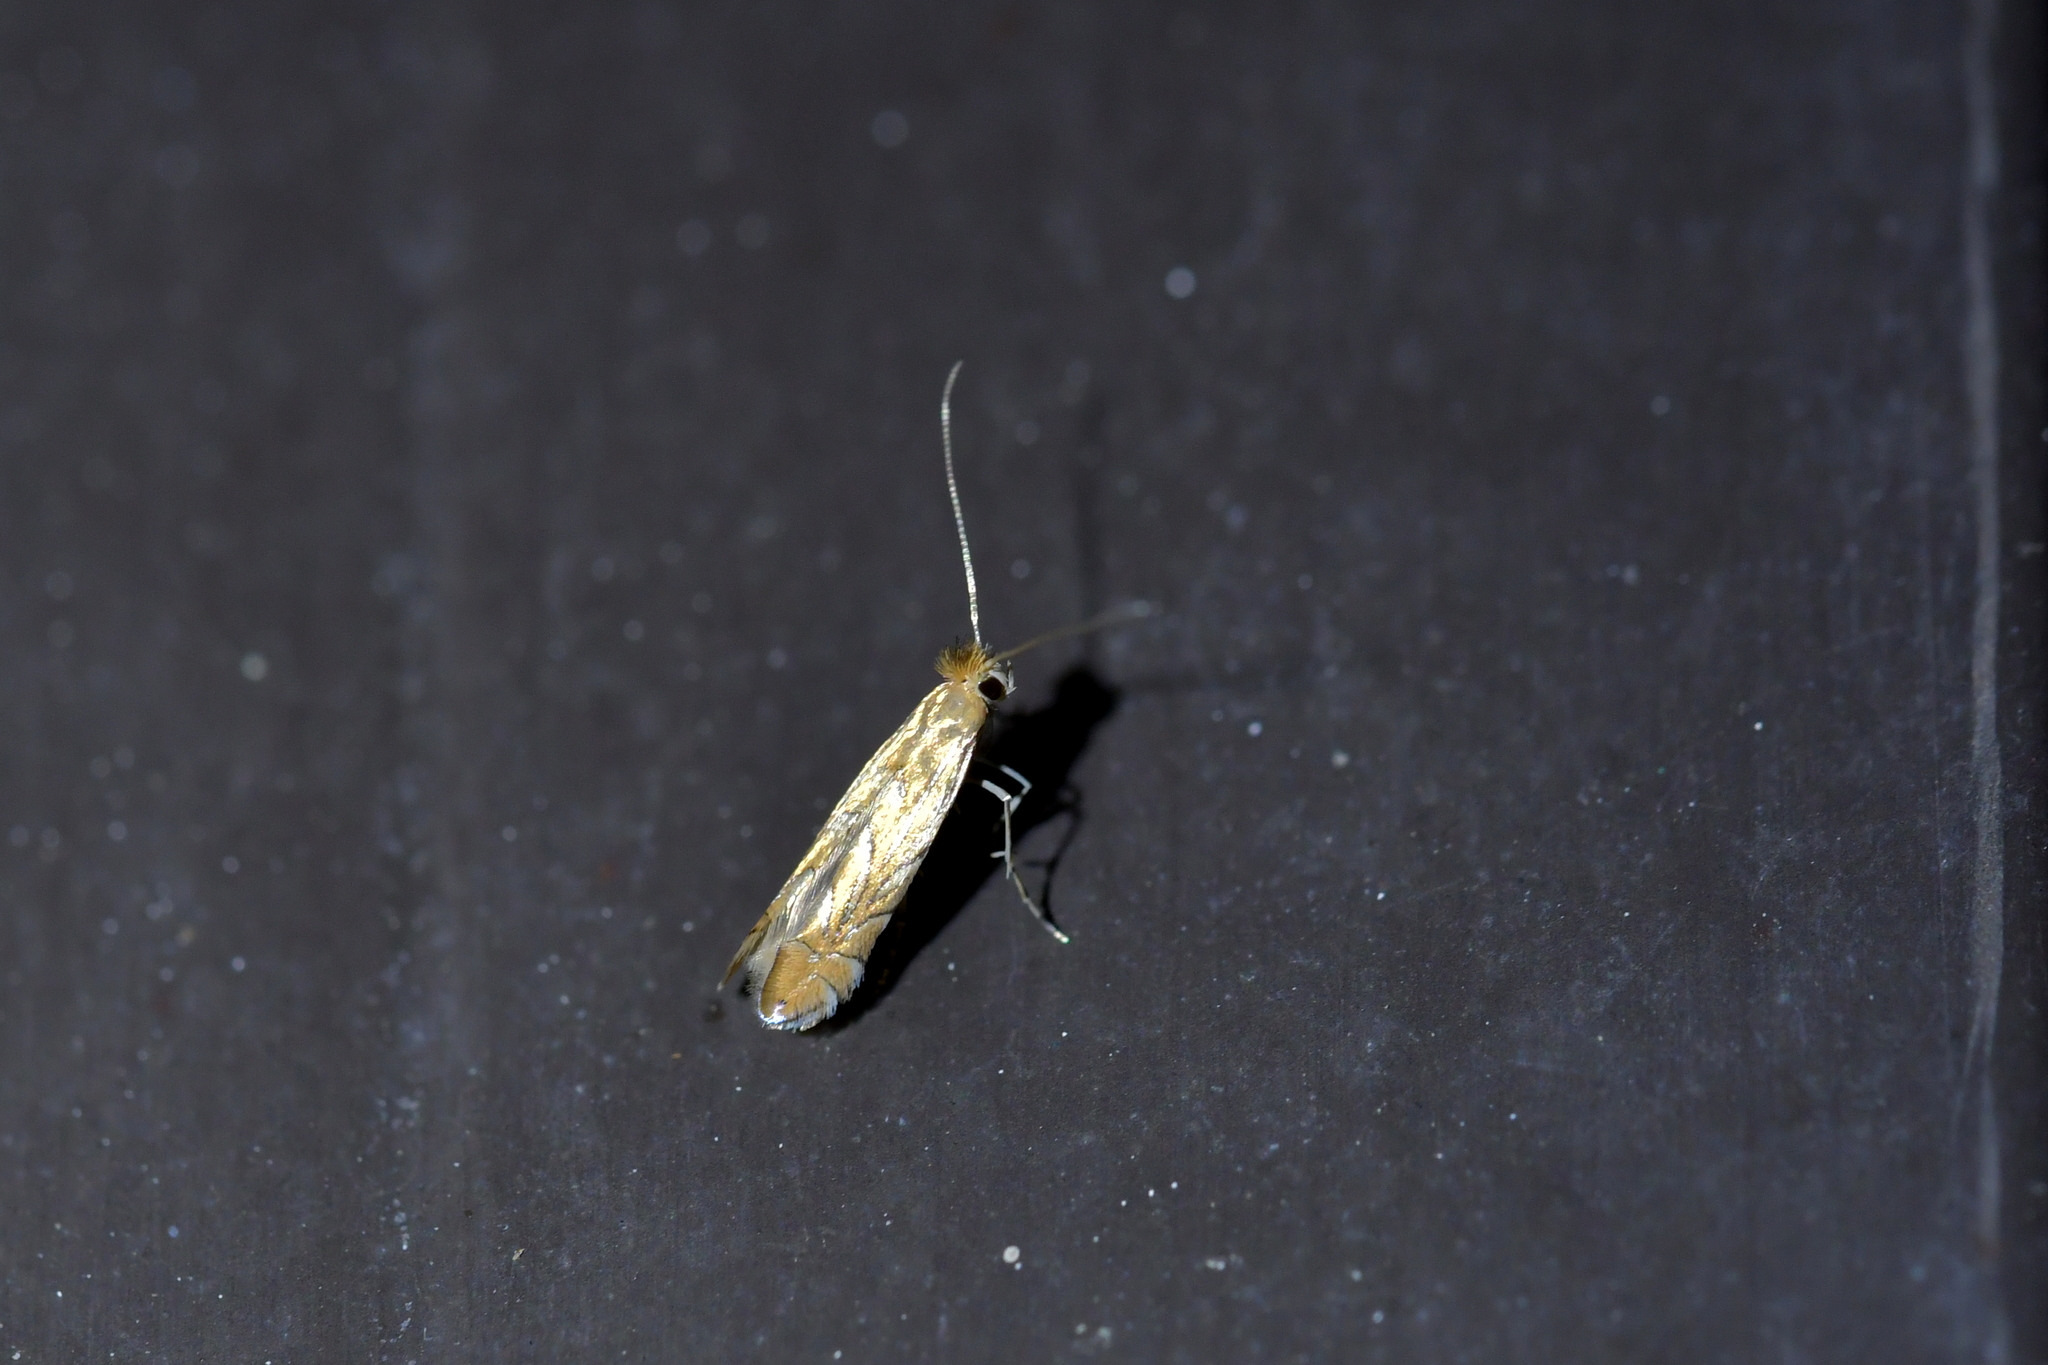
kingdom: Animalia
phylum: Arthropoda
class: Insecta
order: Lepidoptera
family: Gracillariidae
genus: Phyllonorycter
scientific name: Phyllonorycter messaniella
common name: Garden midget
